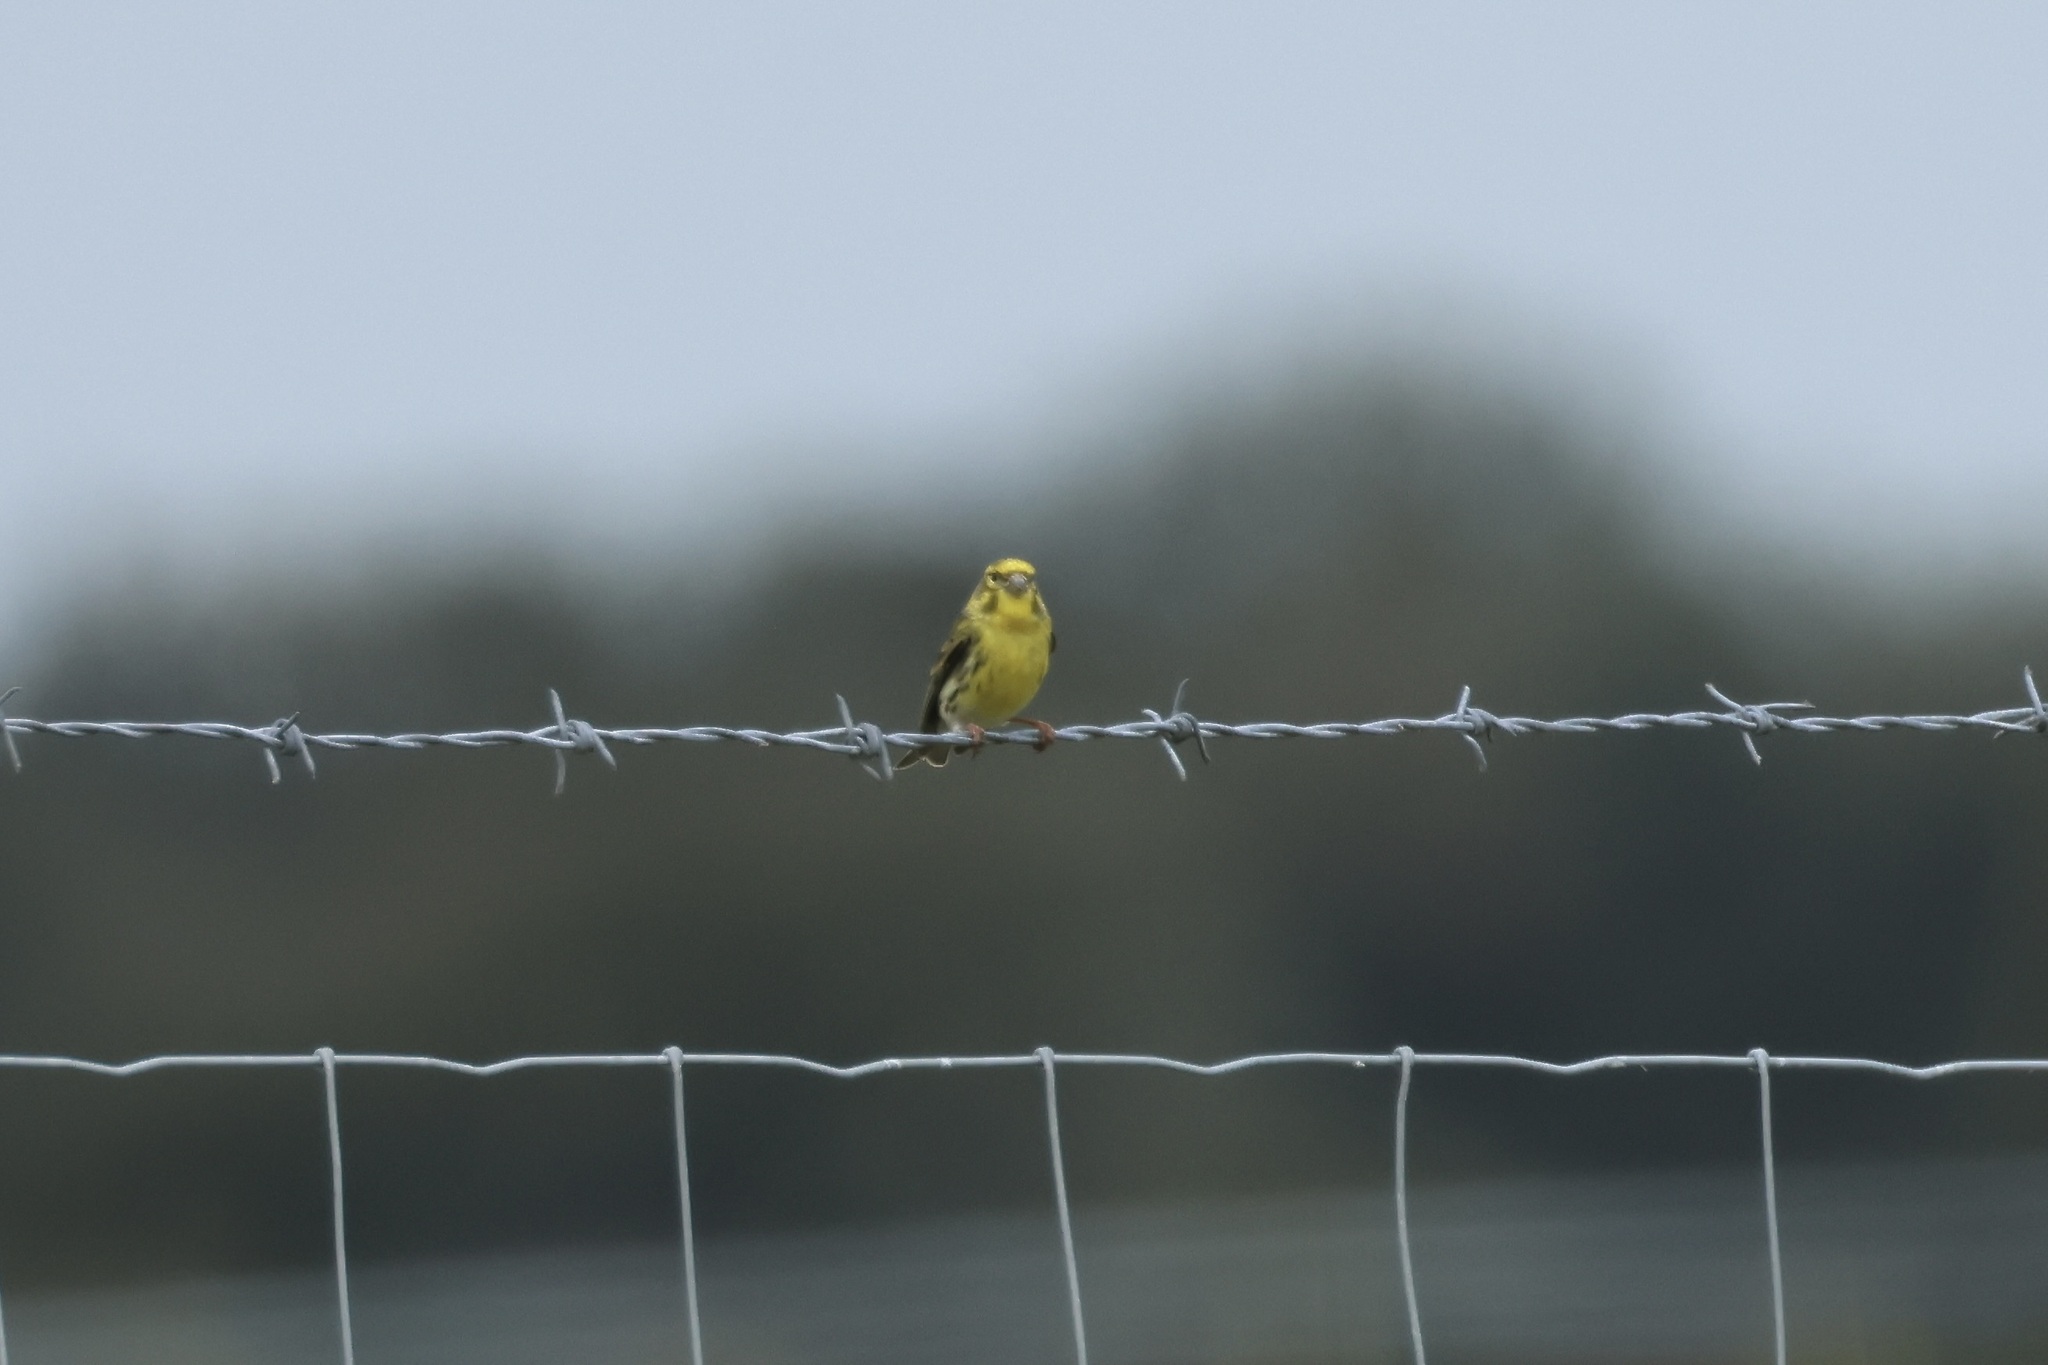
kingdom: Animalia
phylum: Chordata
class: Aves
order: Passeriformes
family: Fringillidae
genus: Serinus
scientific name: Serinus serinus
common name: European serin
